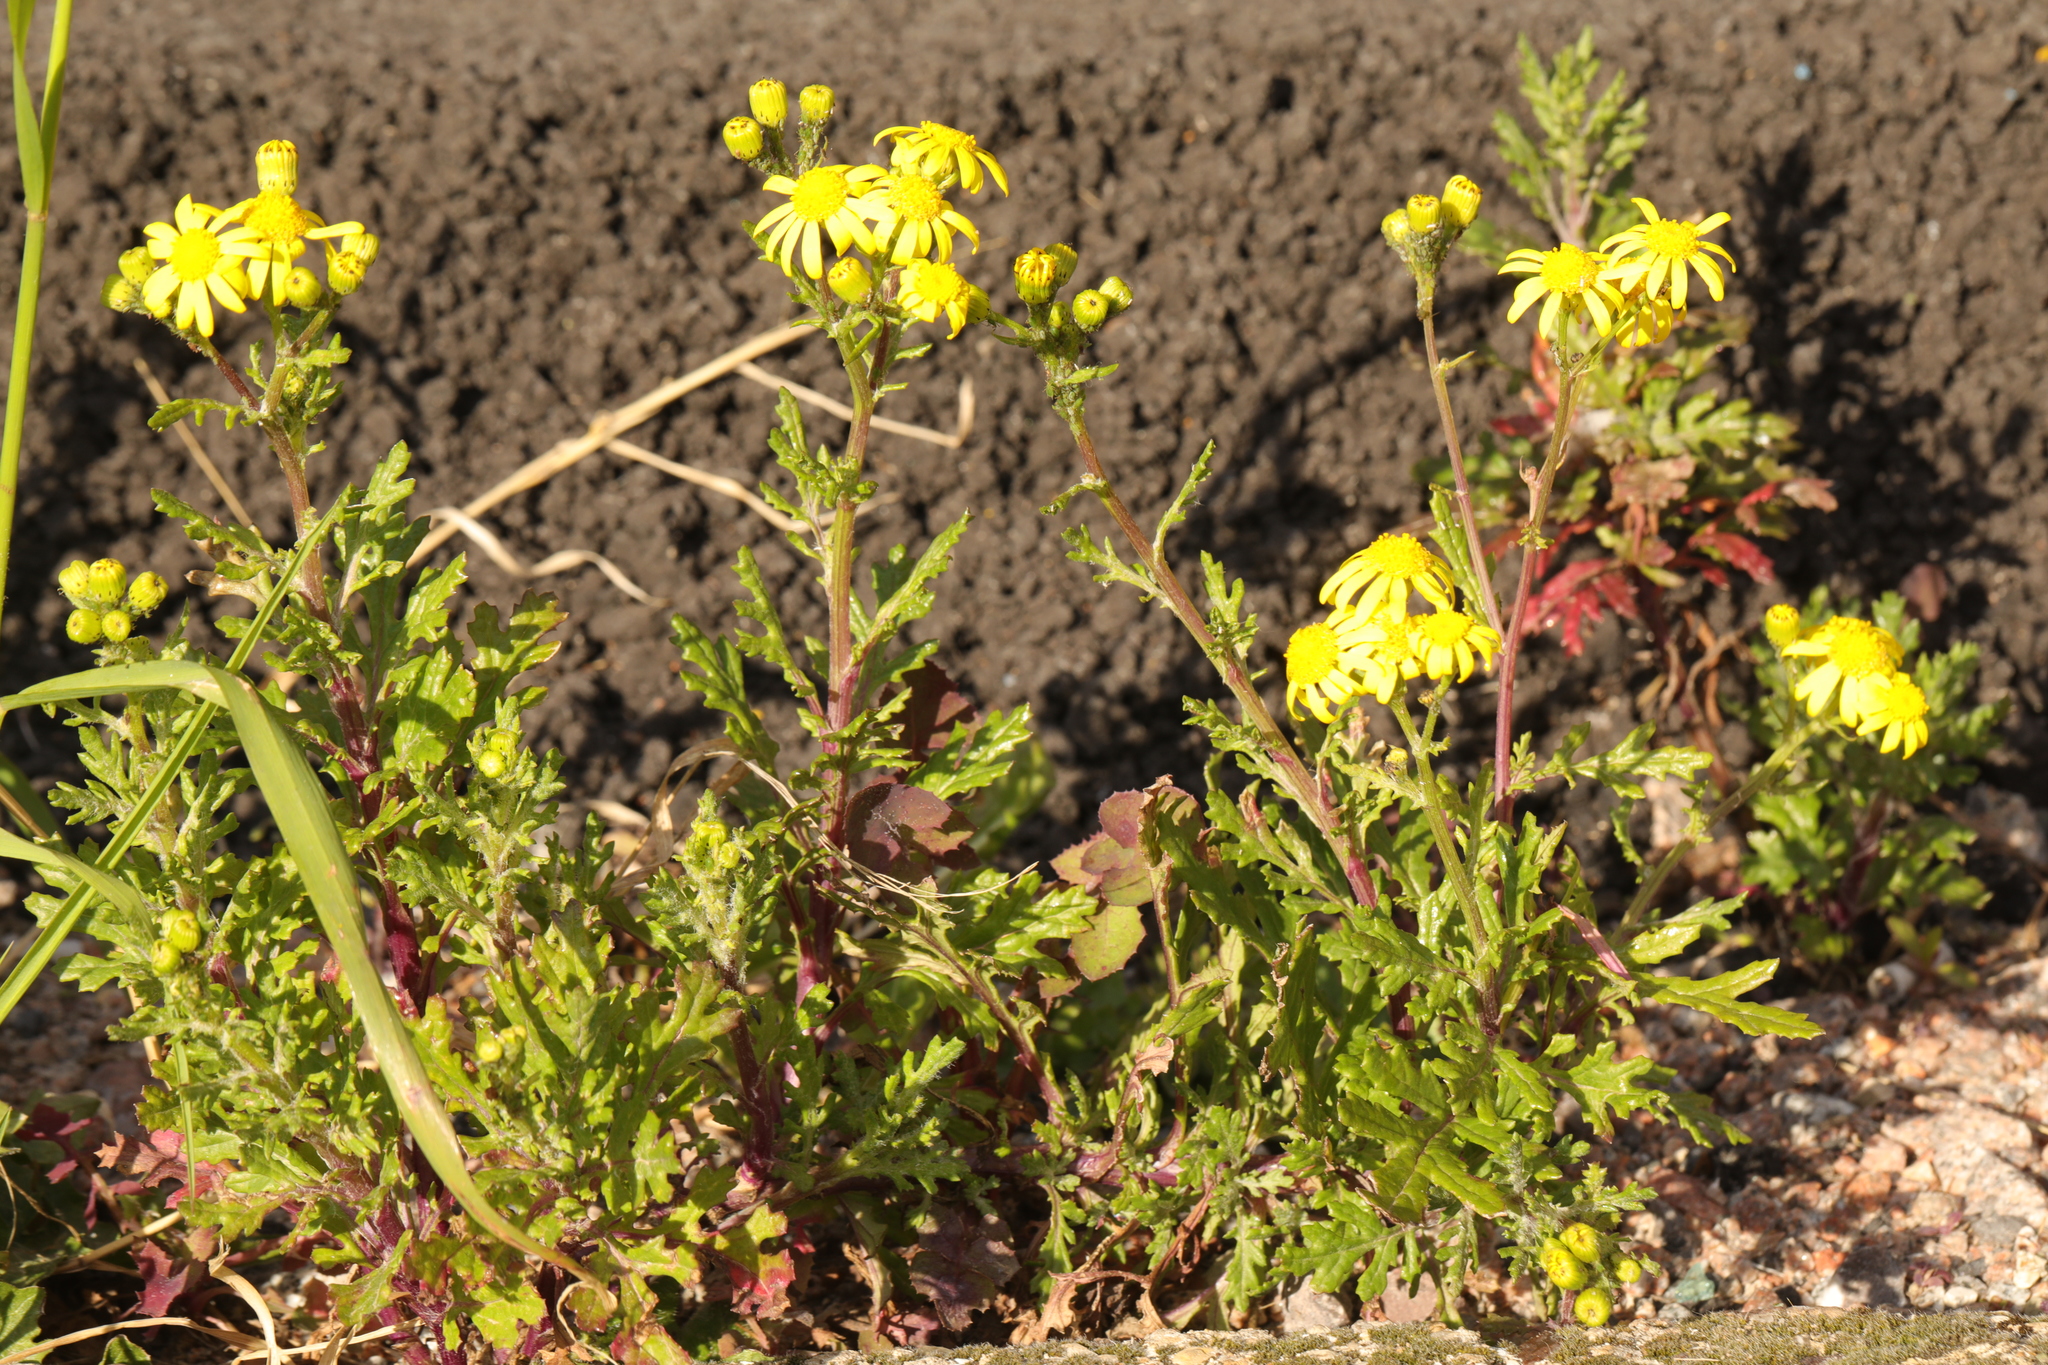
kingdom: Plantae
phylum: Tracheophyta
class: Magnoliopsida
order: Asterales
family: Asteraceae
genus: Senecio
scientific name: Senecio squalidus
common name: Oxford ragwort
